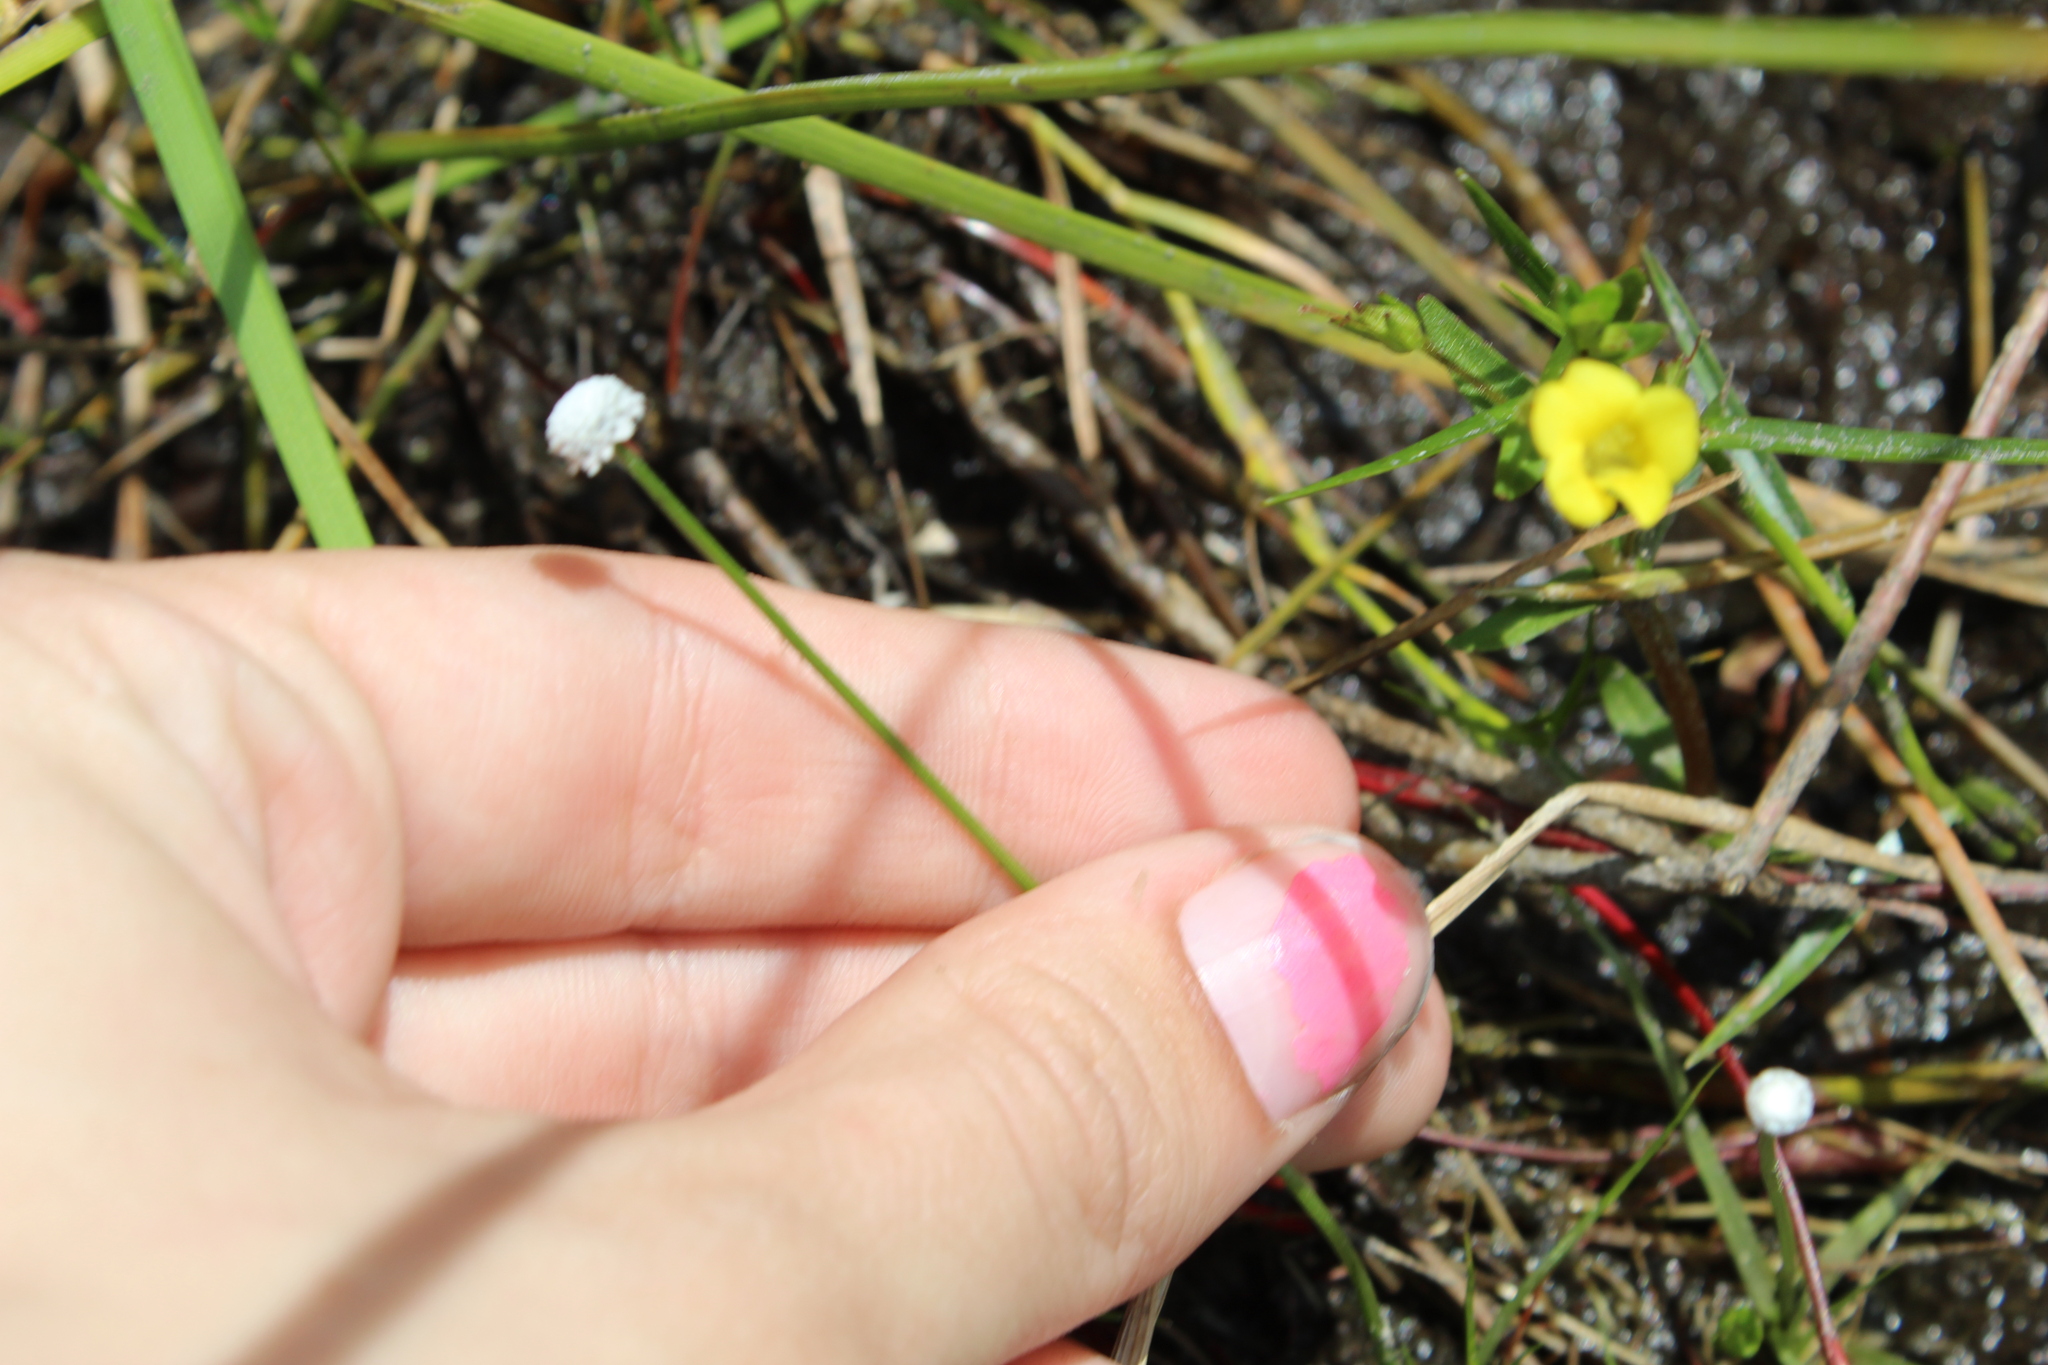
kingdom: Plantae
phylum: Tracheophyta
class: Liliopsida
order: Poales
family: Eriocaulaceae
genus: Eriocaulon
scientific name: Eriocaulon aquaticum
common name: Pipewort
